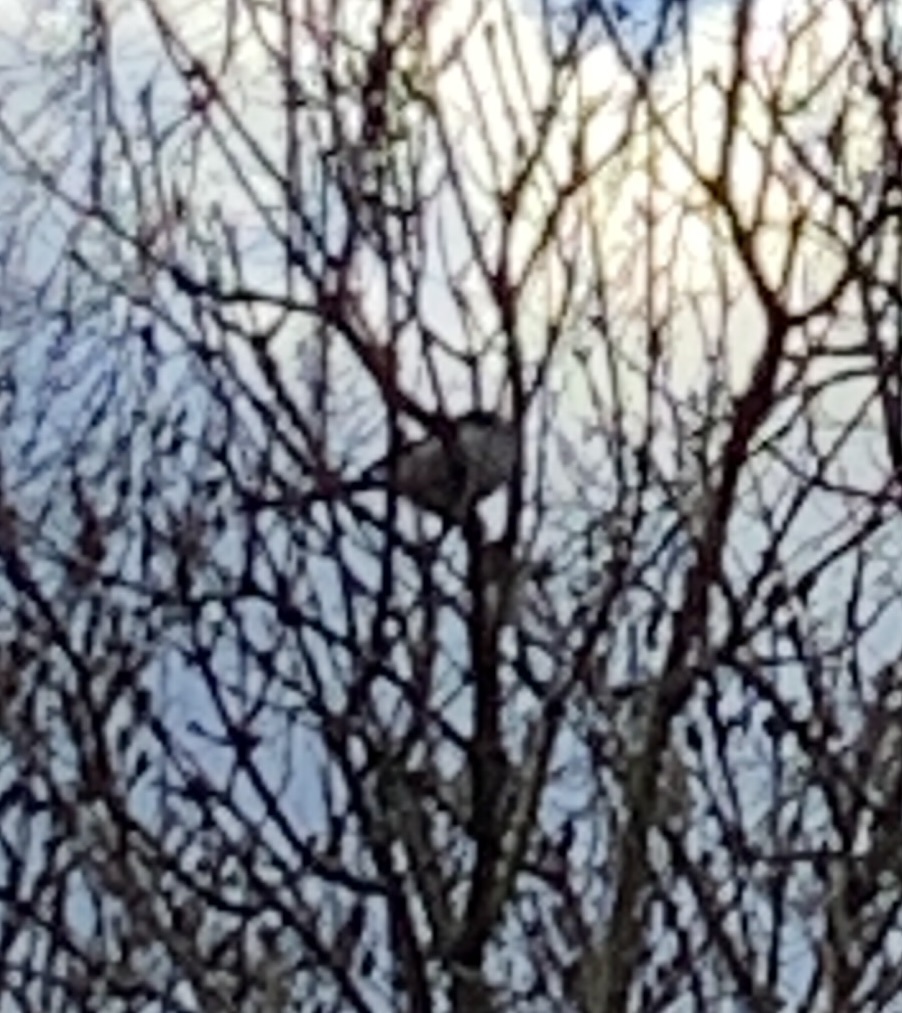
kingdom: Animalia
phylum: Chordata
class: Aves
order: Passeriformes
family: Aegithalidae
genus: Aegithalos
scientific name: Aegithalos caudatus
